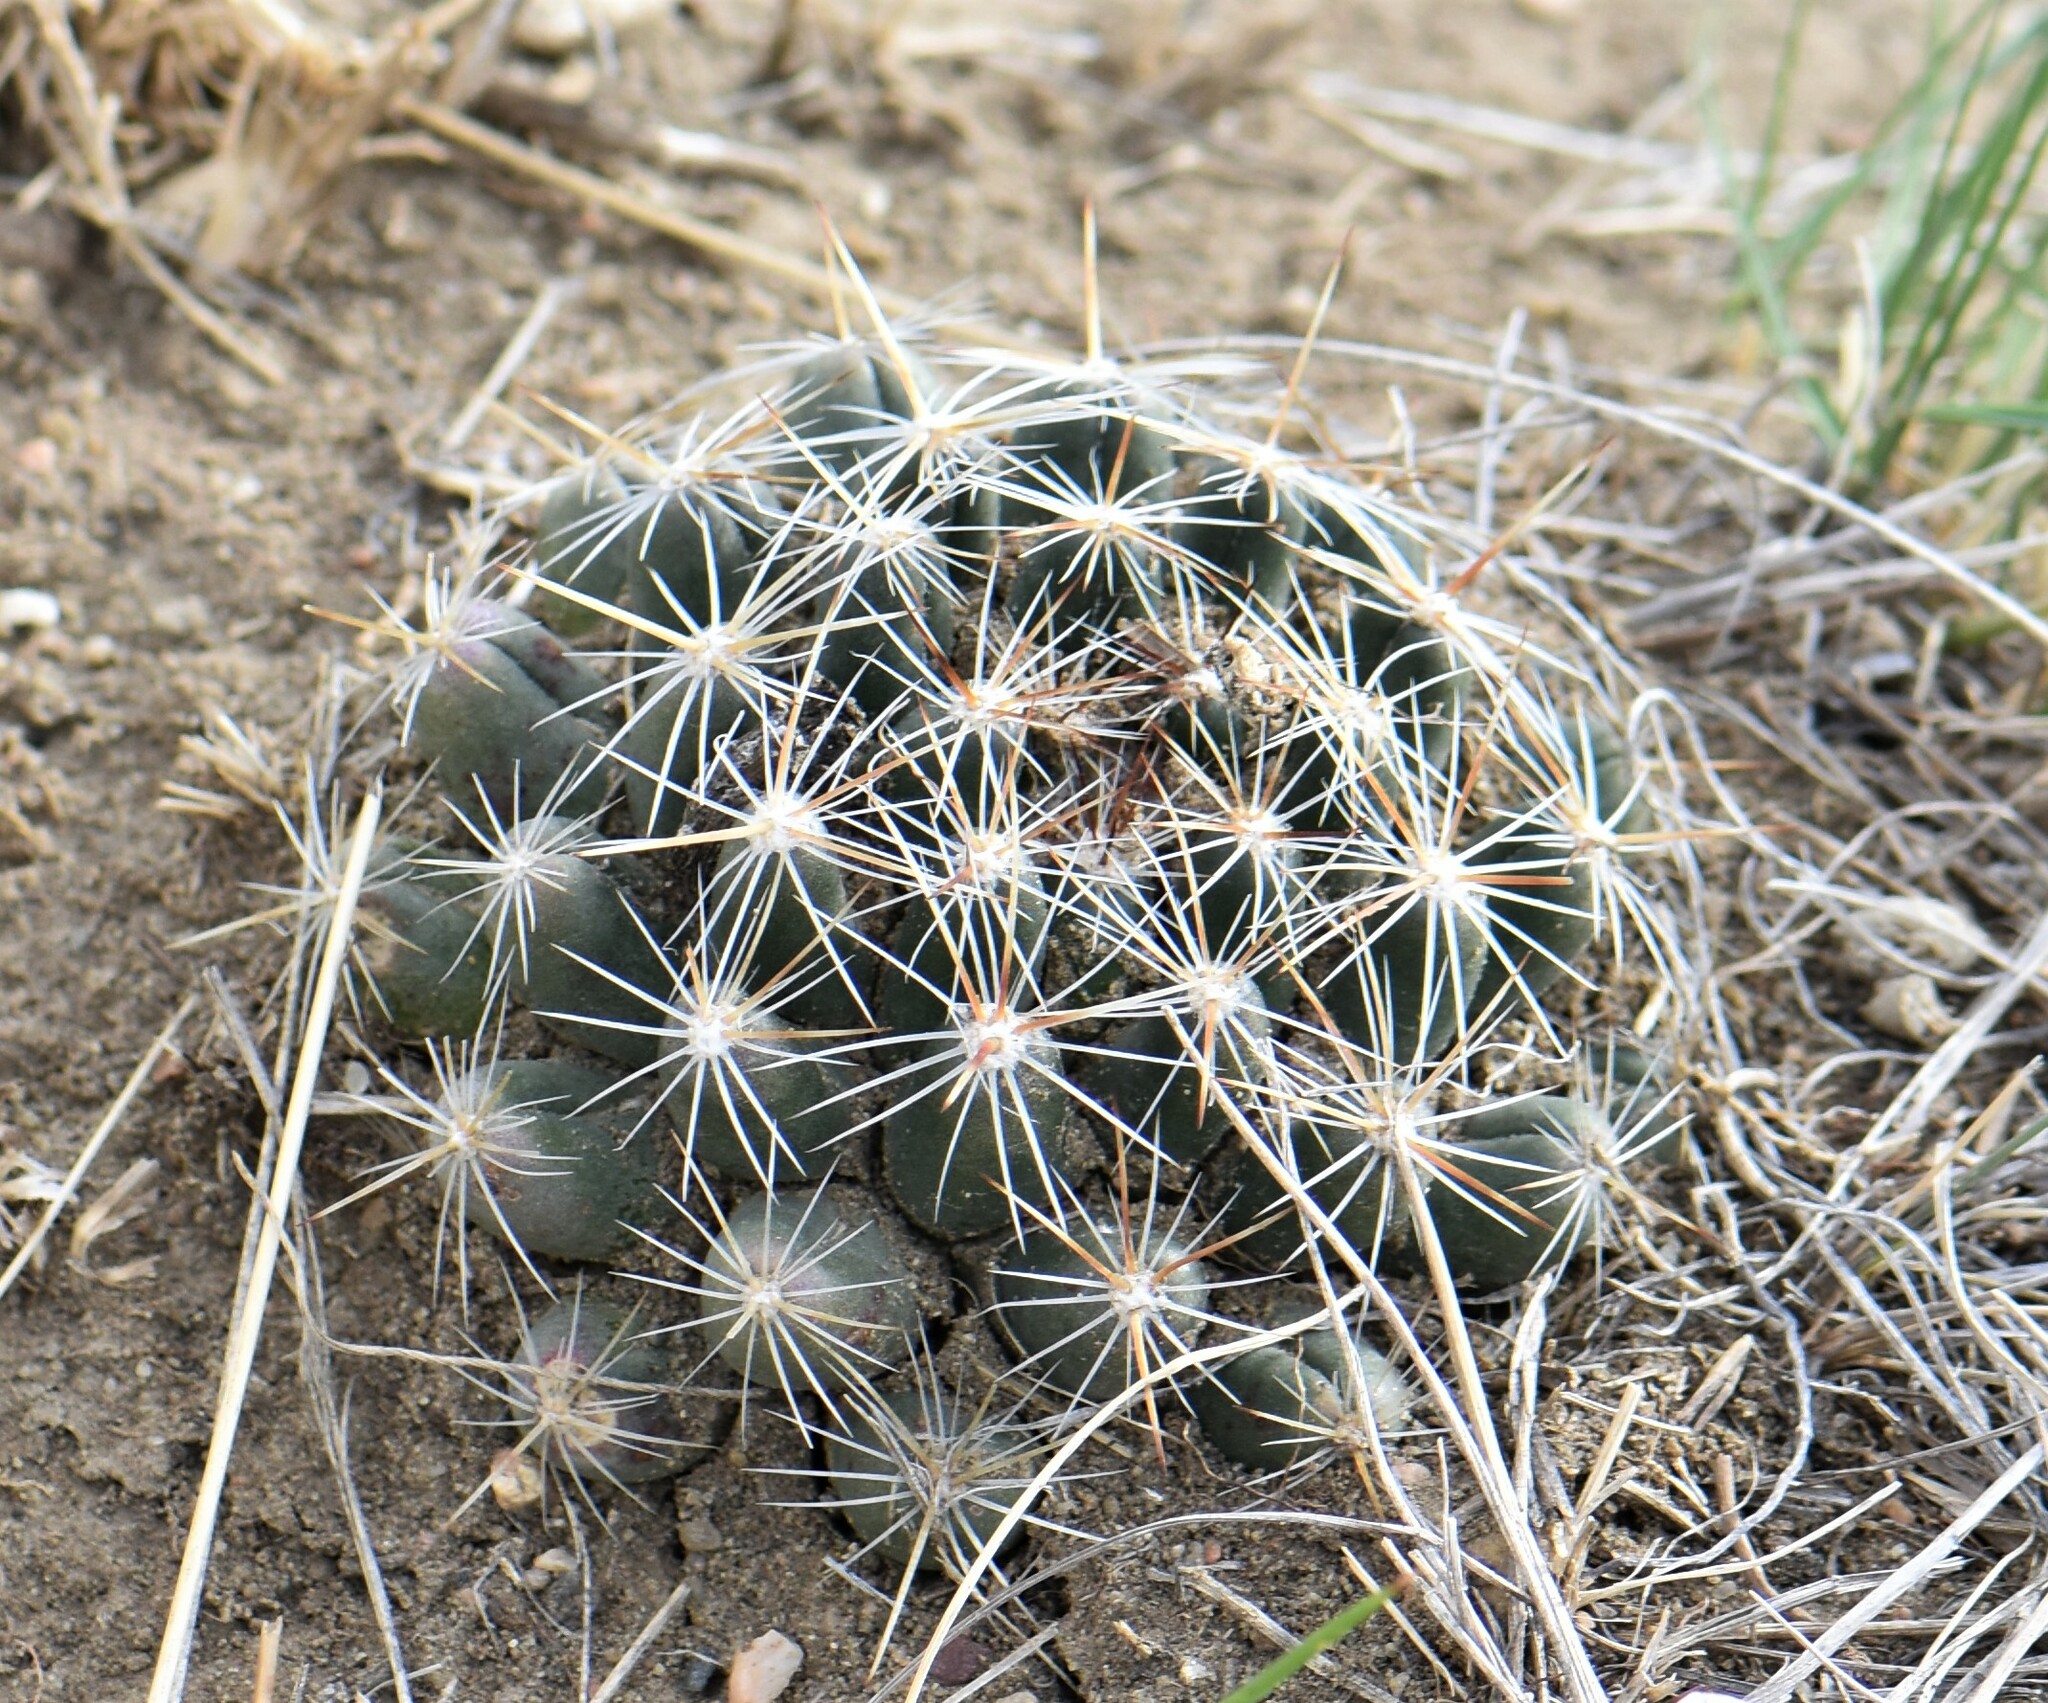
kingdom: Plantae
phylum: Tracheophyta
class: Magnoliopsida
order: Caryophyllales
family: Cactaceae
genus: Pelecyphora
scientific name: Pelecyphora vivipara
